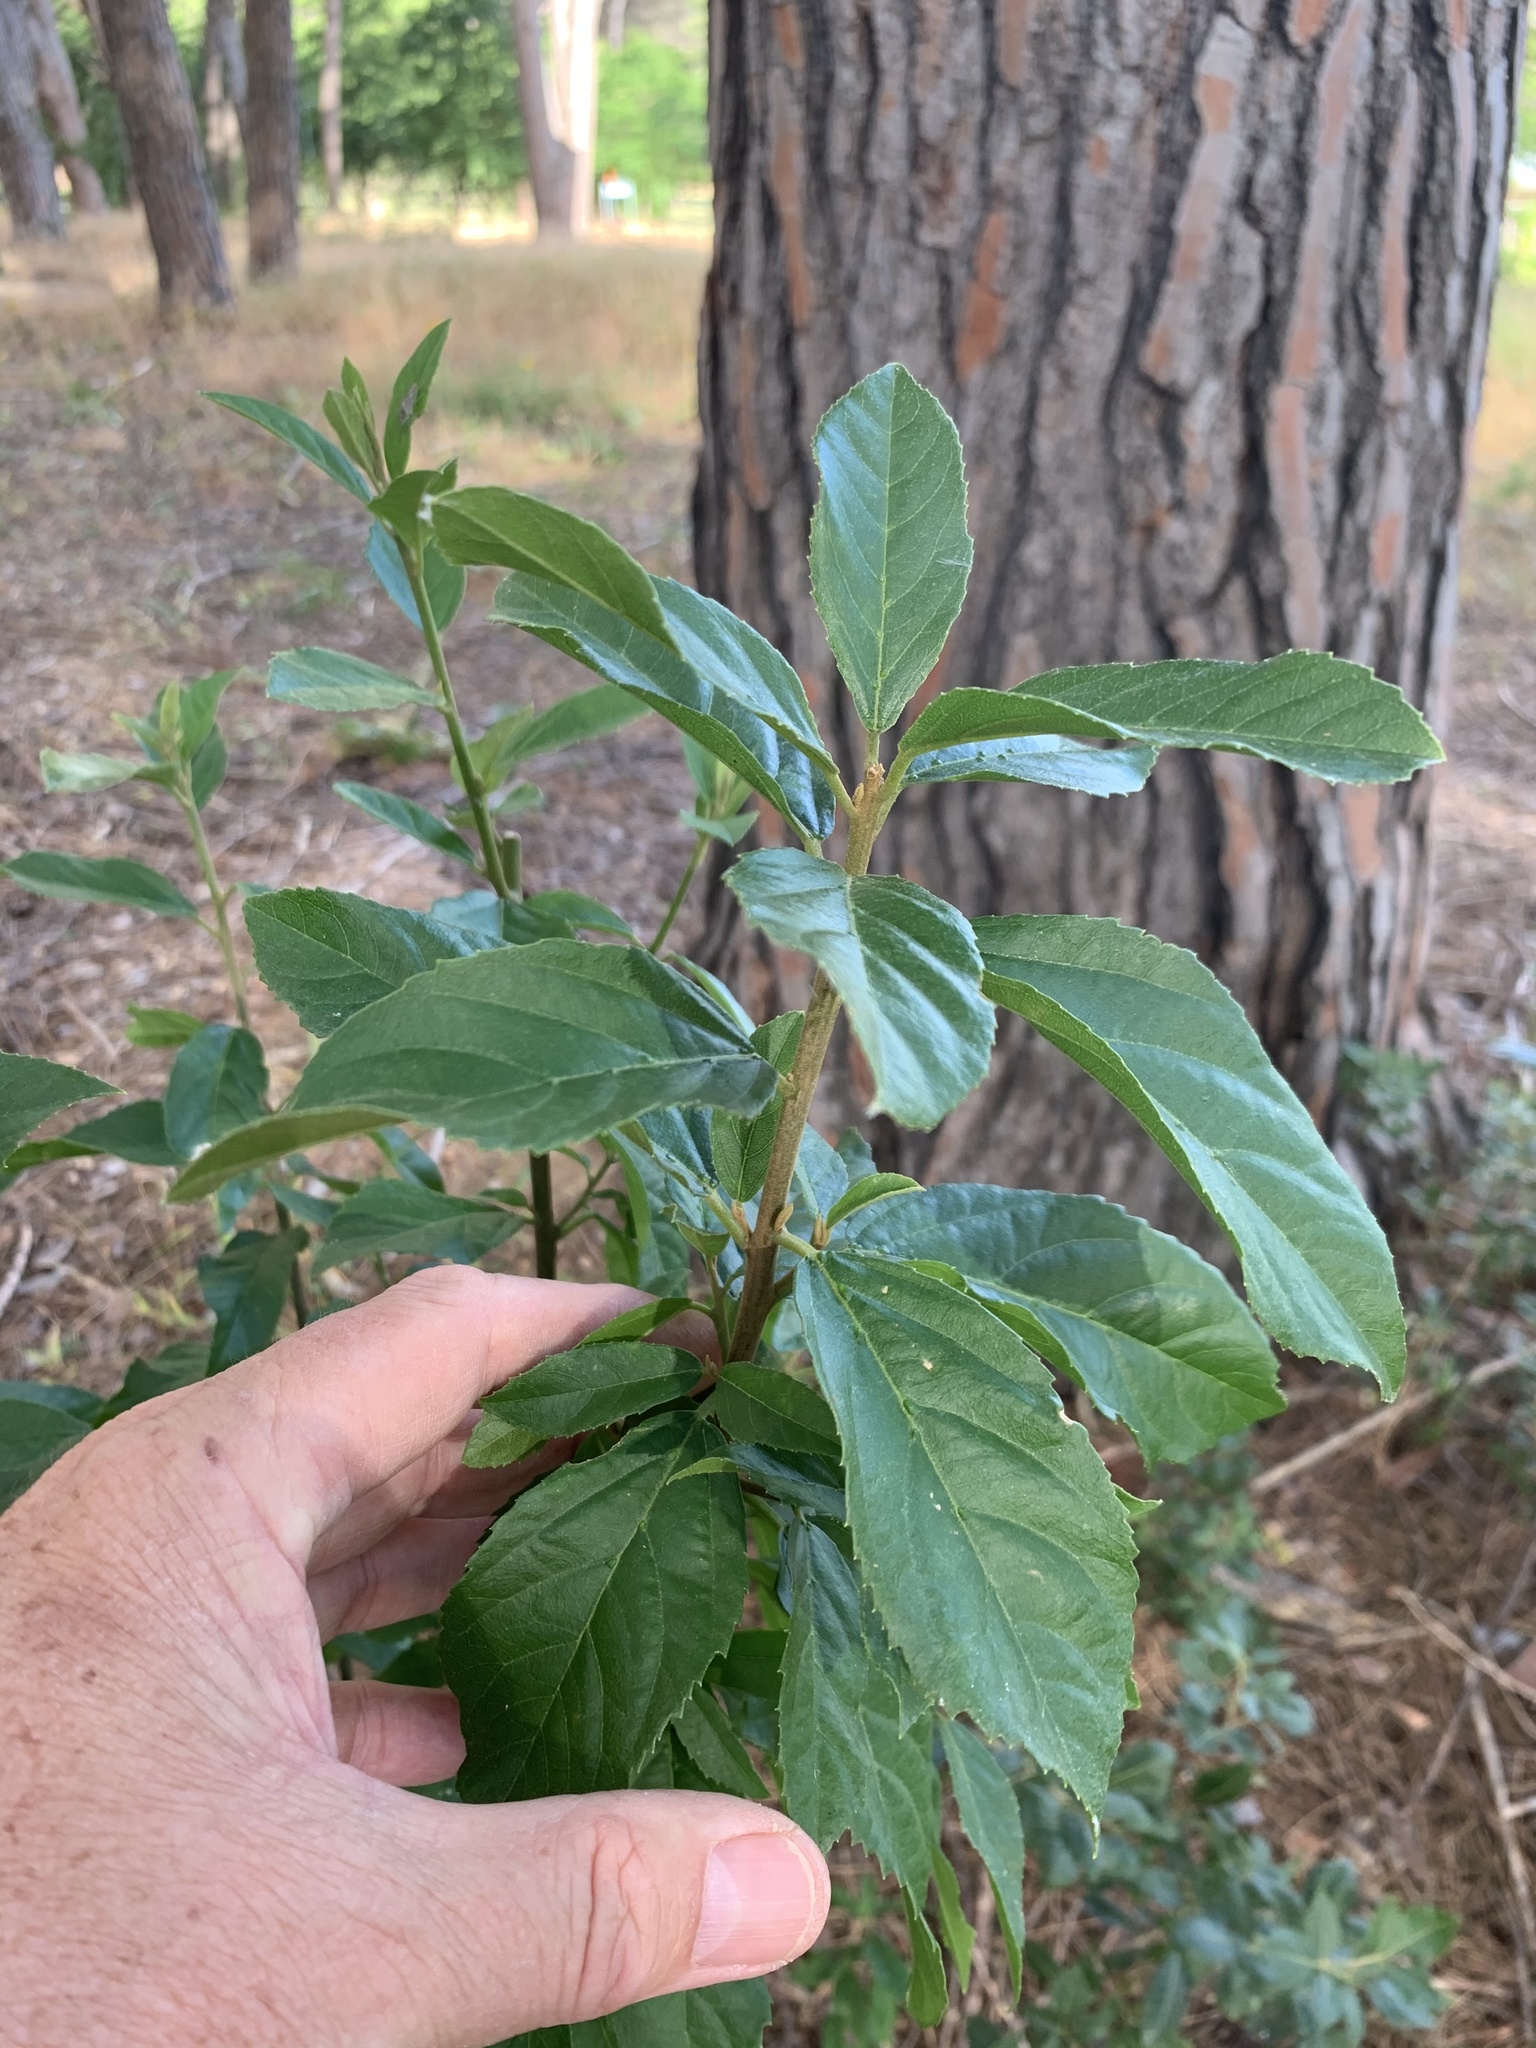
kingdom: Plantae
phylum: Tracheophyta
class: Magnoliopsida
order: Malpighiales
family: Achariaceae
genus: Kiggelaria
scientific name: Kiggelaria africana
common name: Wild peach
